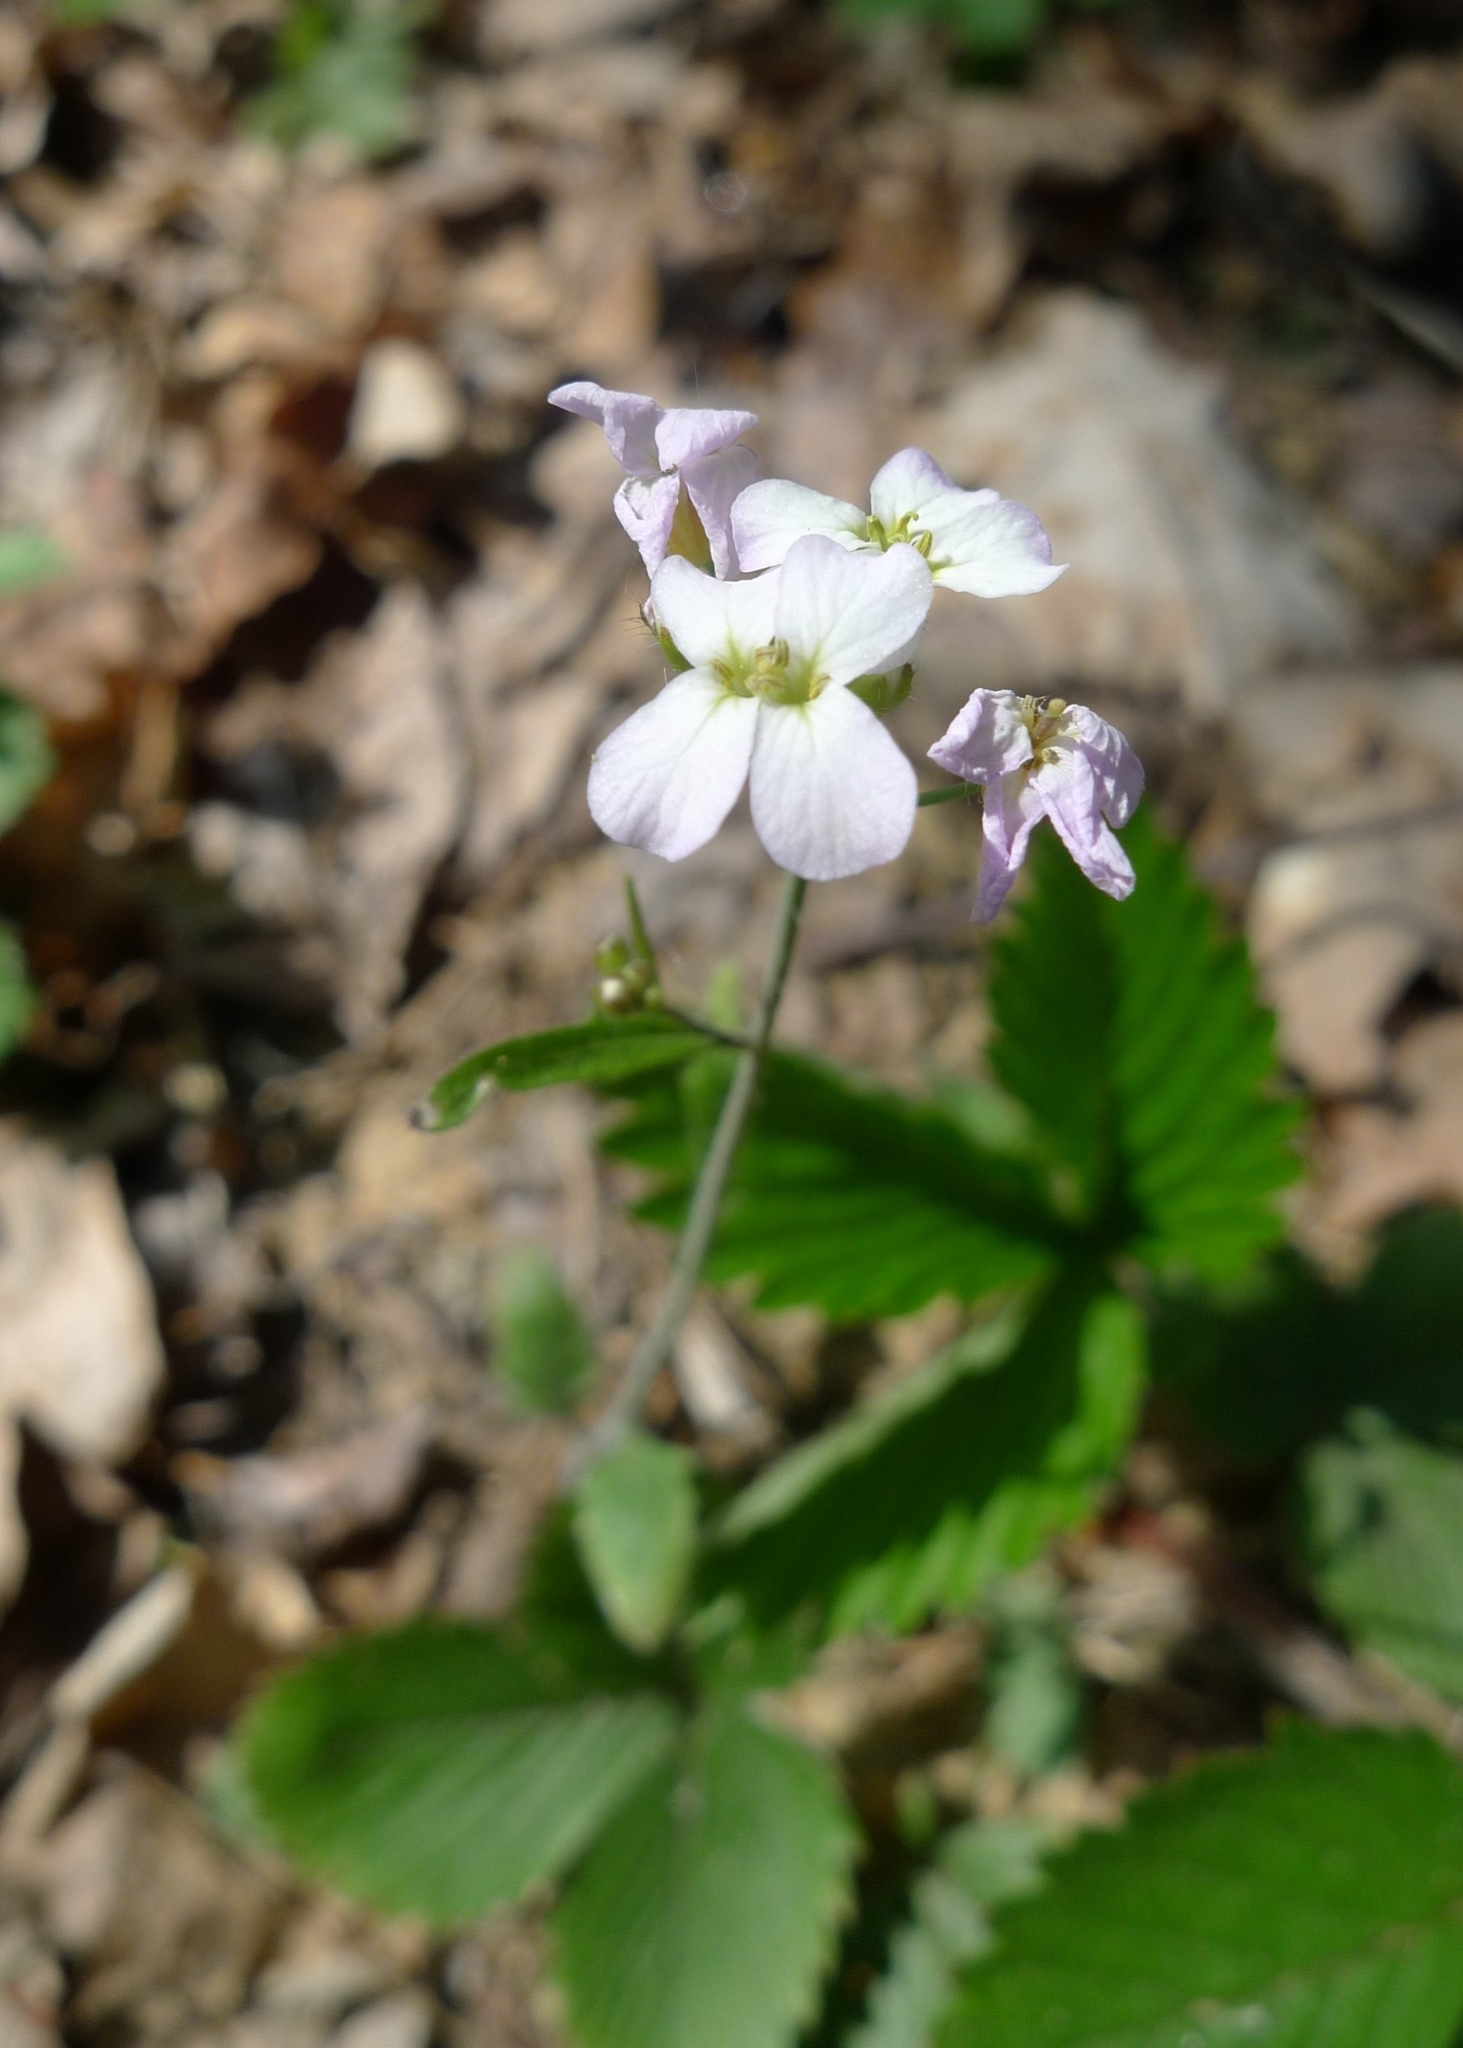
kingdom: Plantae
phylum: Tracheophyta
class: Magnoliopsida
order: Brassicales
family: Brassicaceae
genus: Arabidopsis
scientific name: Arabidopsis arenosa
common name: Sand rock-cress
